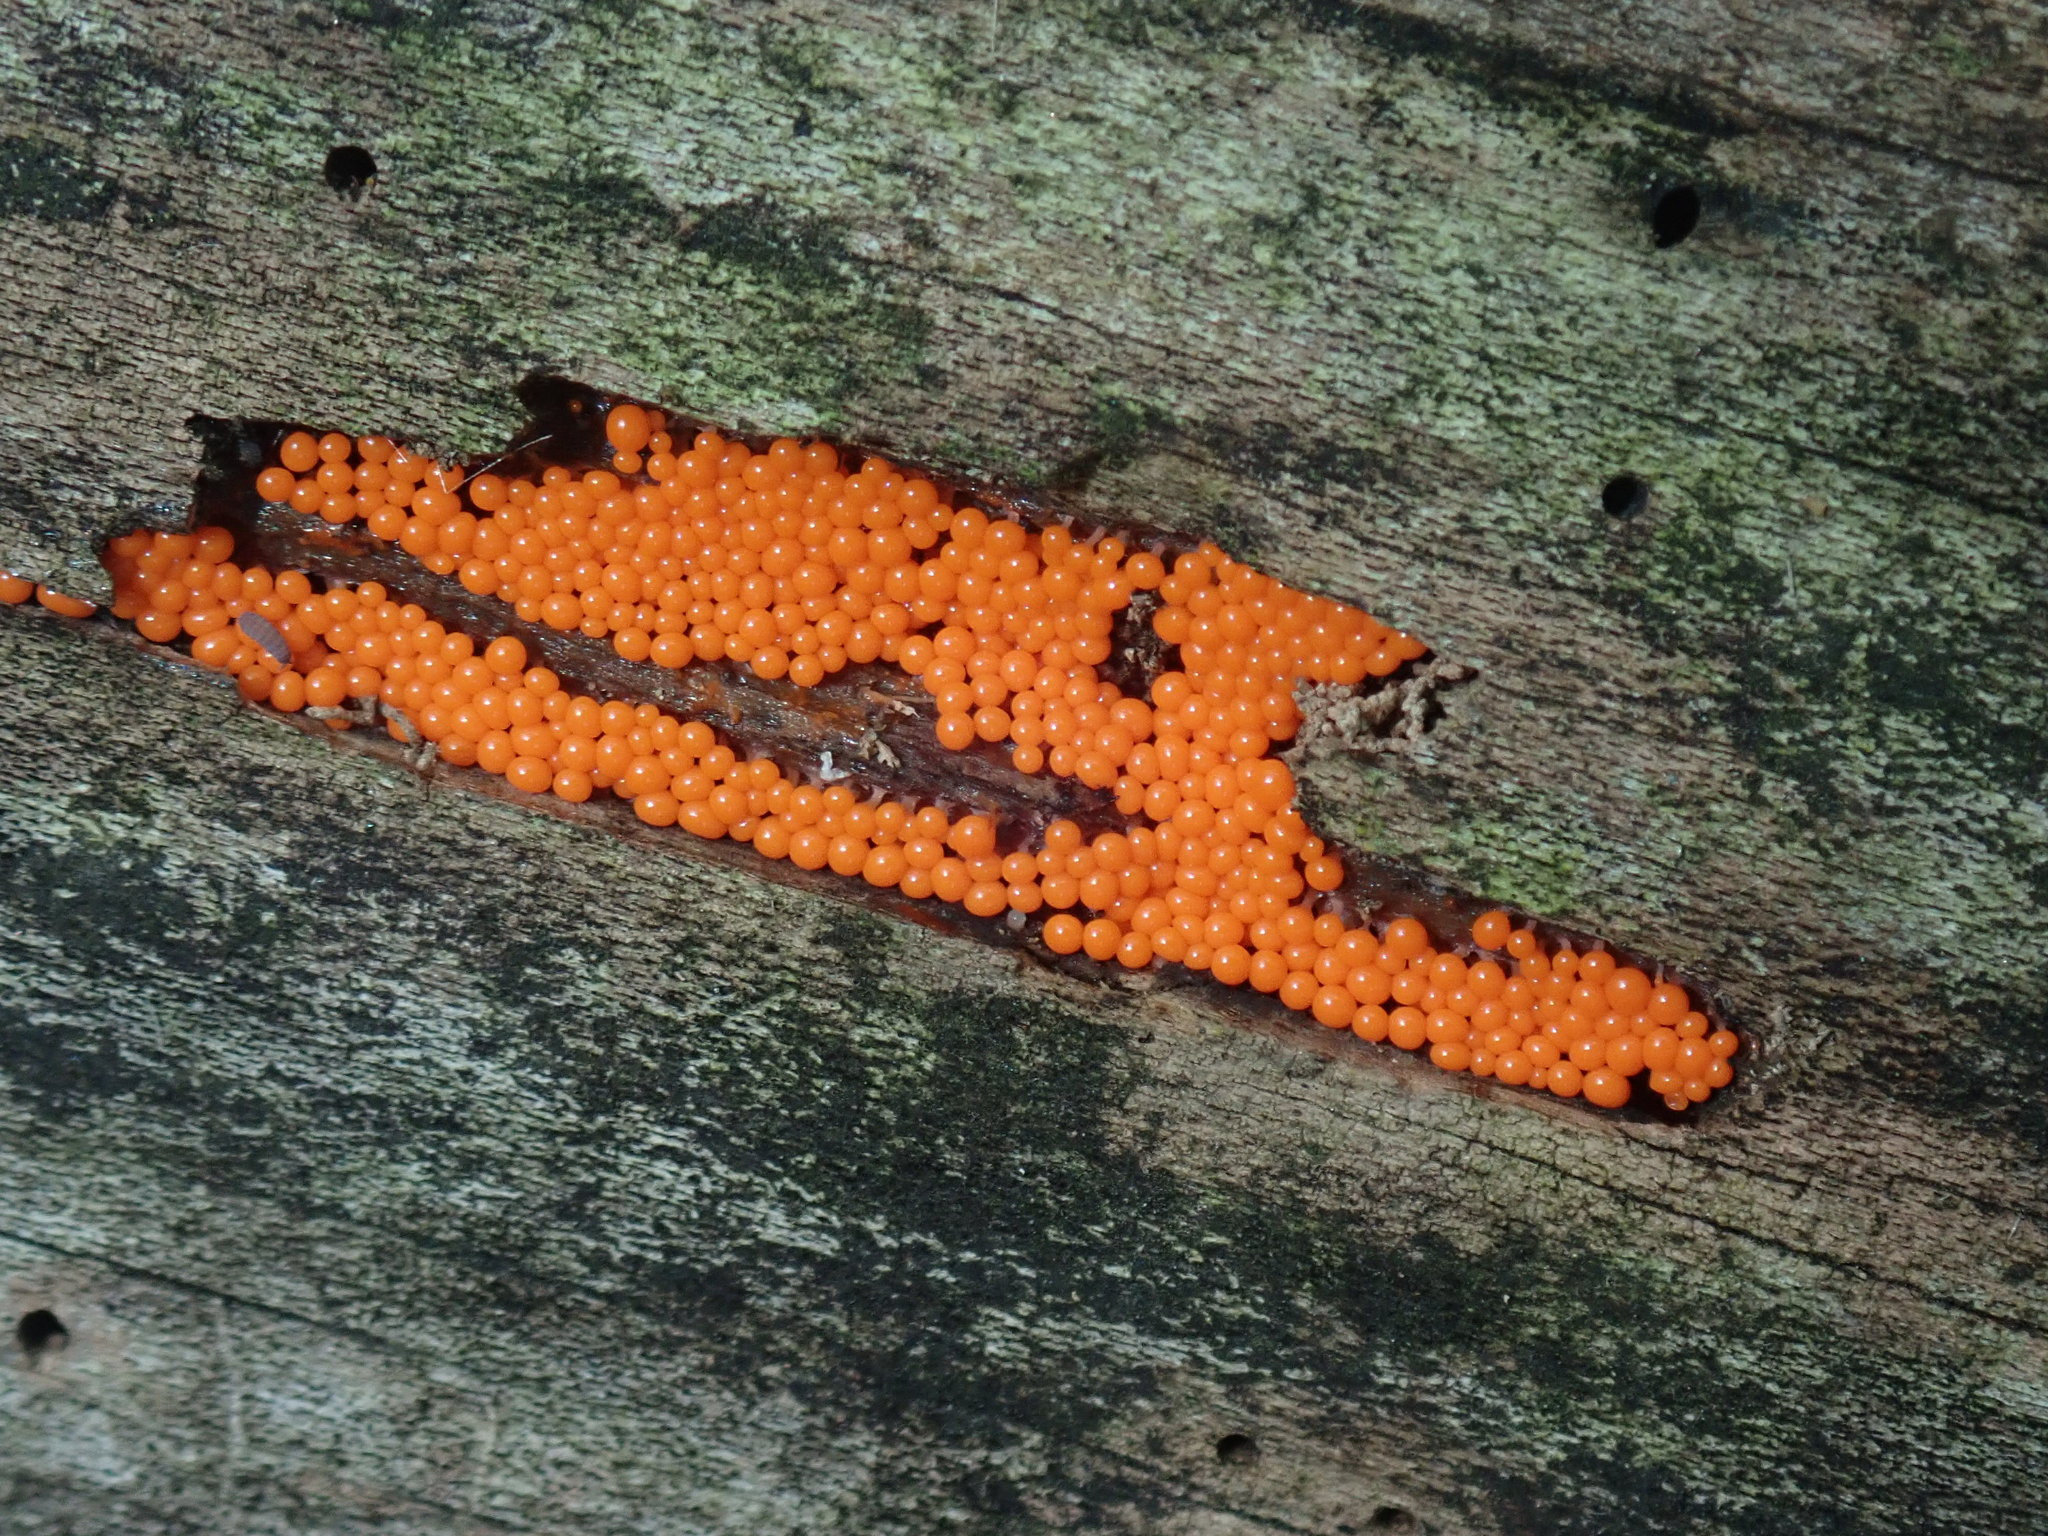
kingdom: Protozoa
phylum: Mycetozoa
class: Myxomycetes
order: Trichiales
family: Arcyriaceae
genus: Hemitrichia
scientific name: Hemitrichia decipiens
